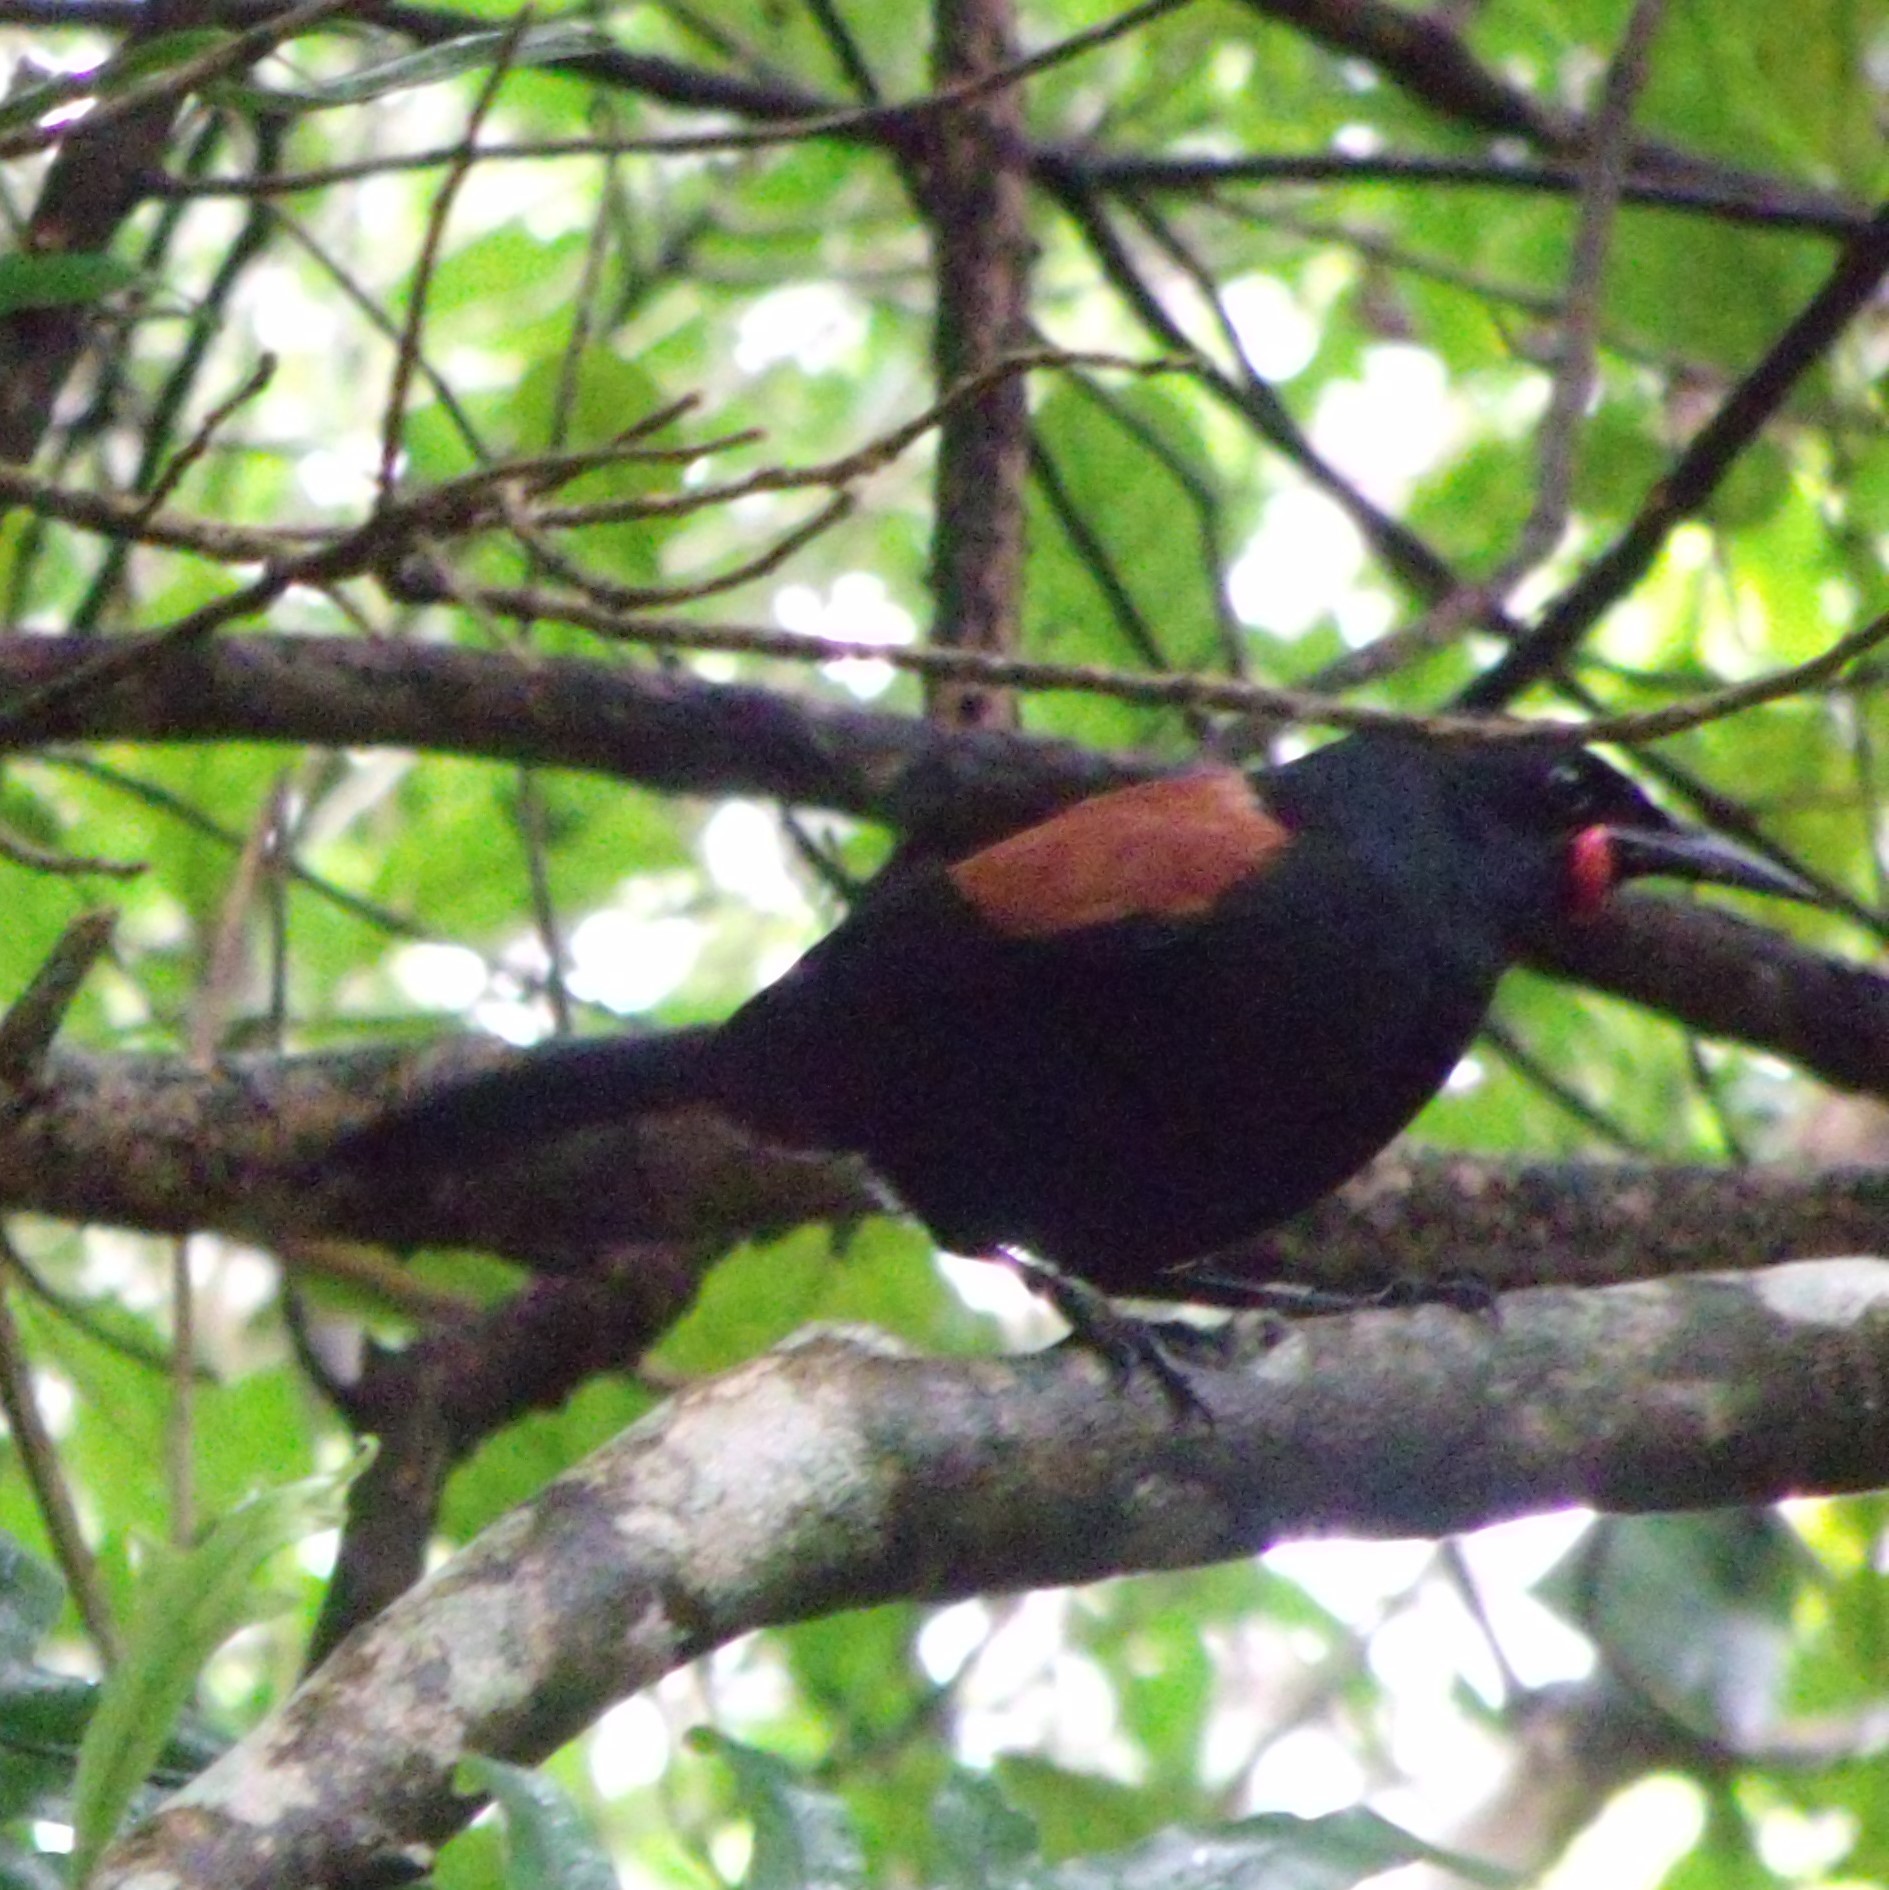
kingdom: Animalia
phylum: Chordata
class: Aves
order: Passeriformes
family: Callaeatidae
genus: Philesturnus
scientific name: Philesturnus carunculatus
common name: South island saddleback
